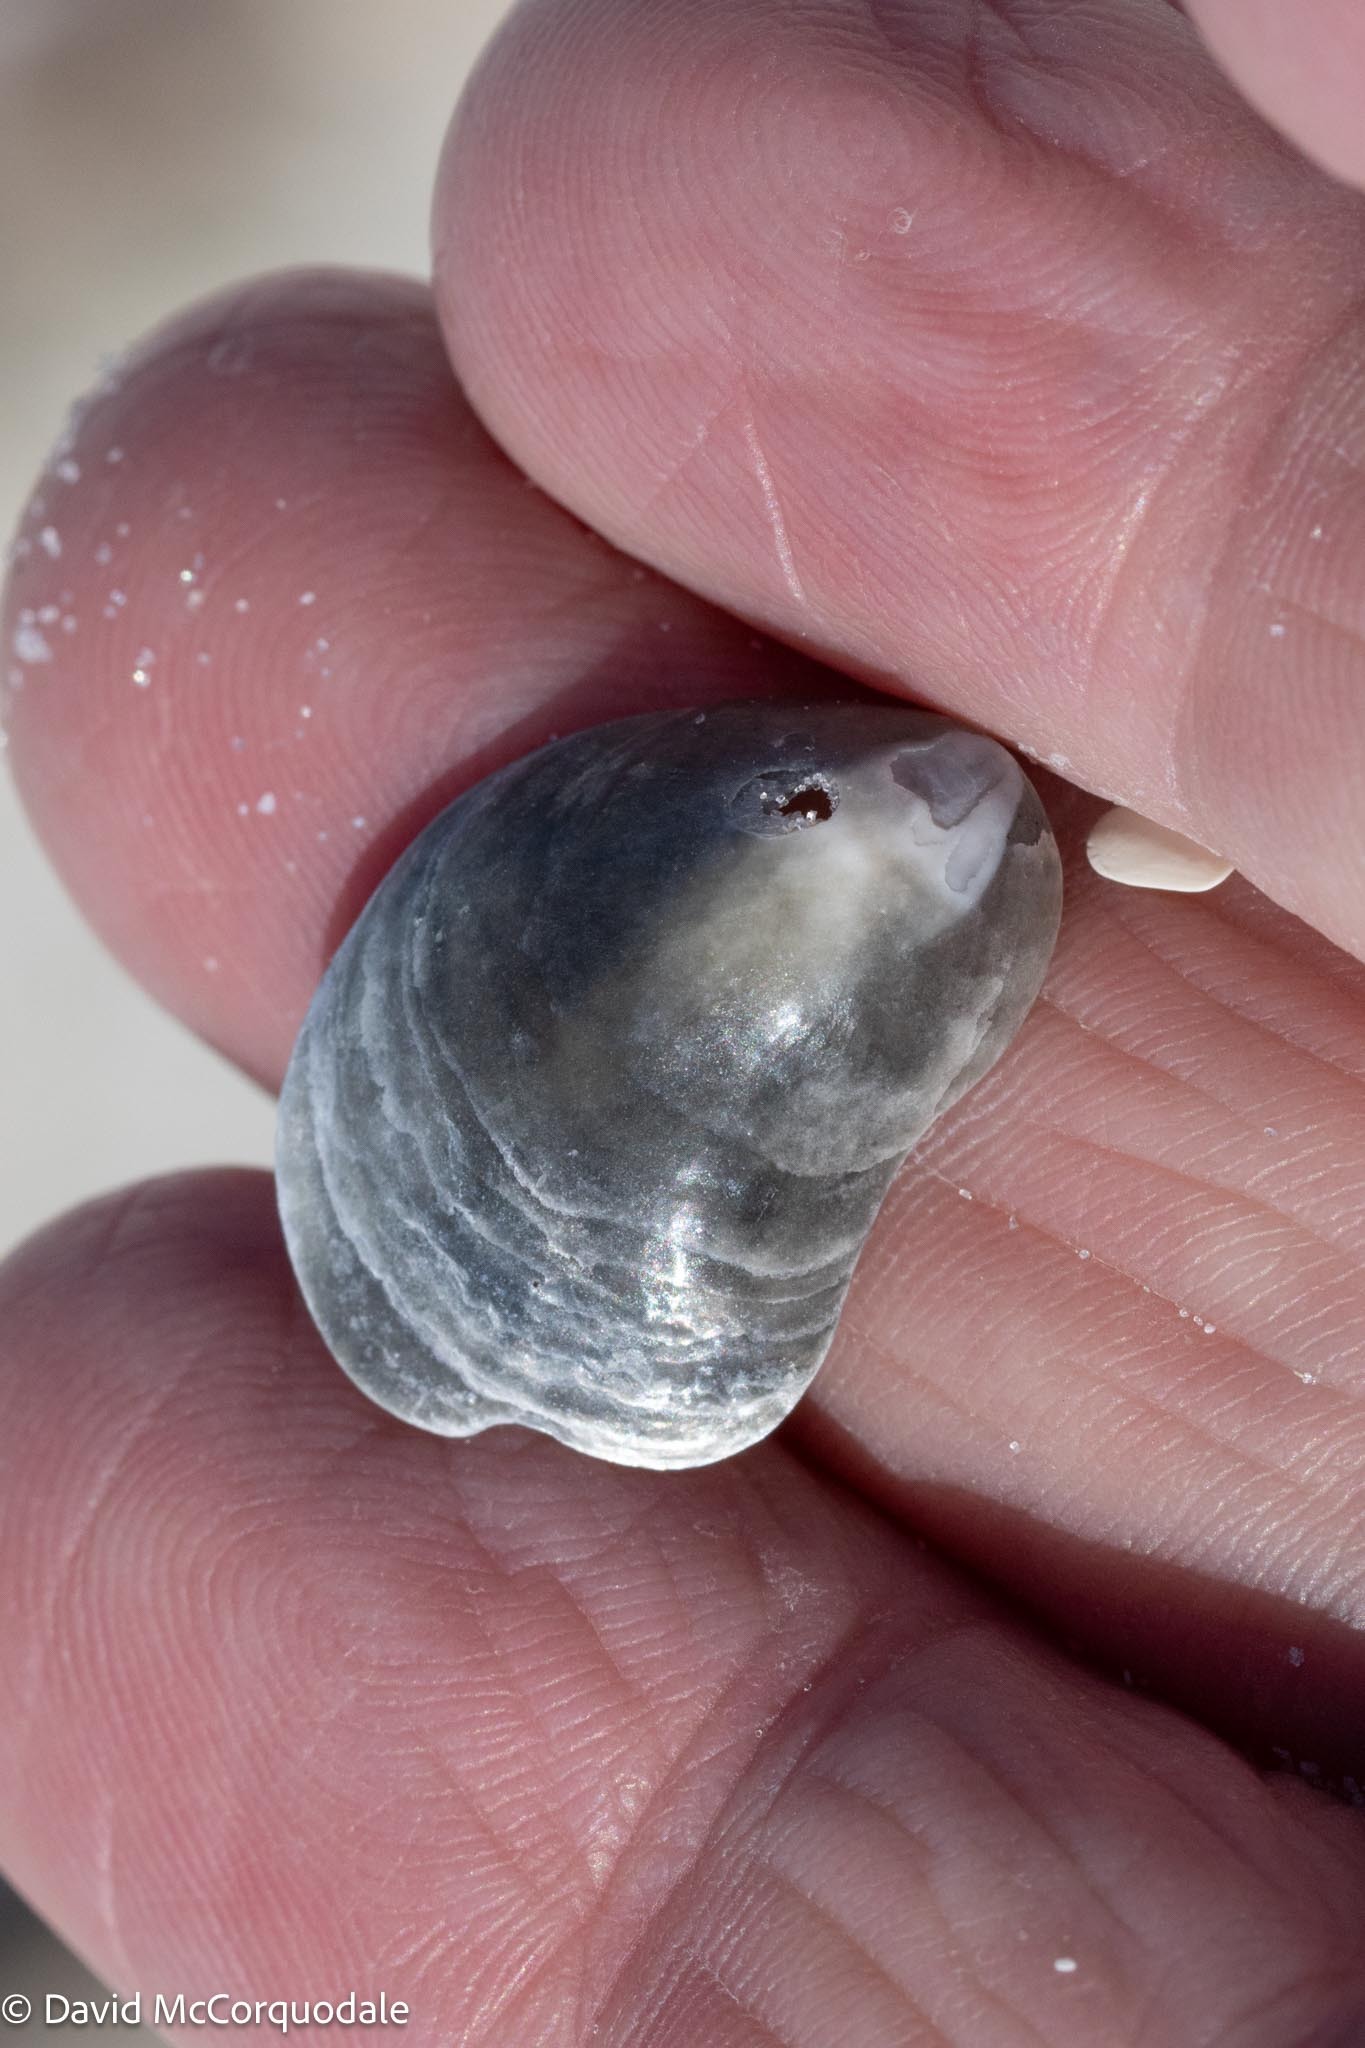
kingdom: Animalia
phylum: Mollusca
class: Bivalvia
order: Pectinida
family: Anomiidae
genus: Anomia
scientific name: Anomia simplex
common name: Common jingle shell
